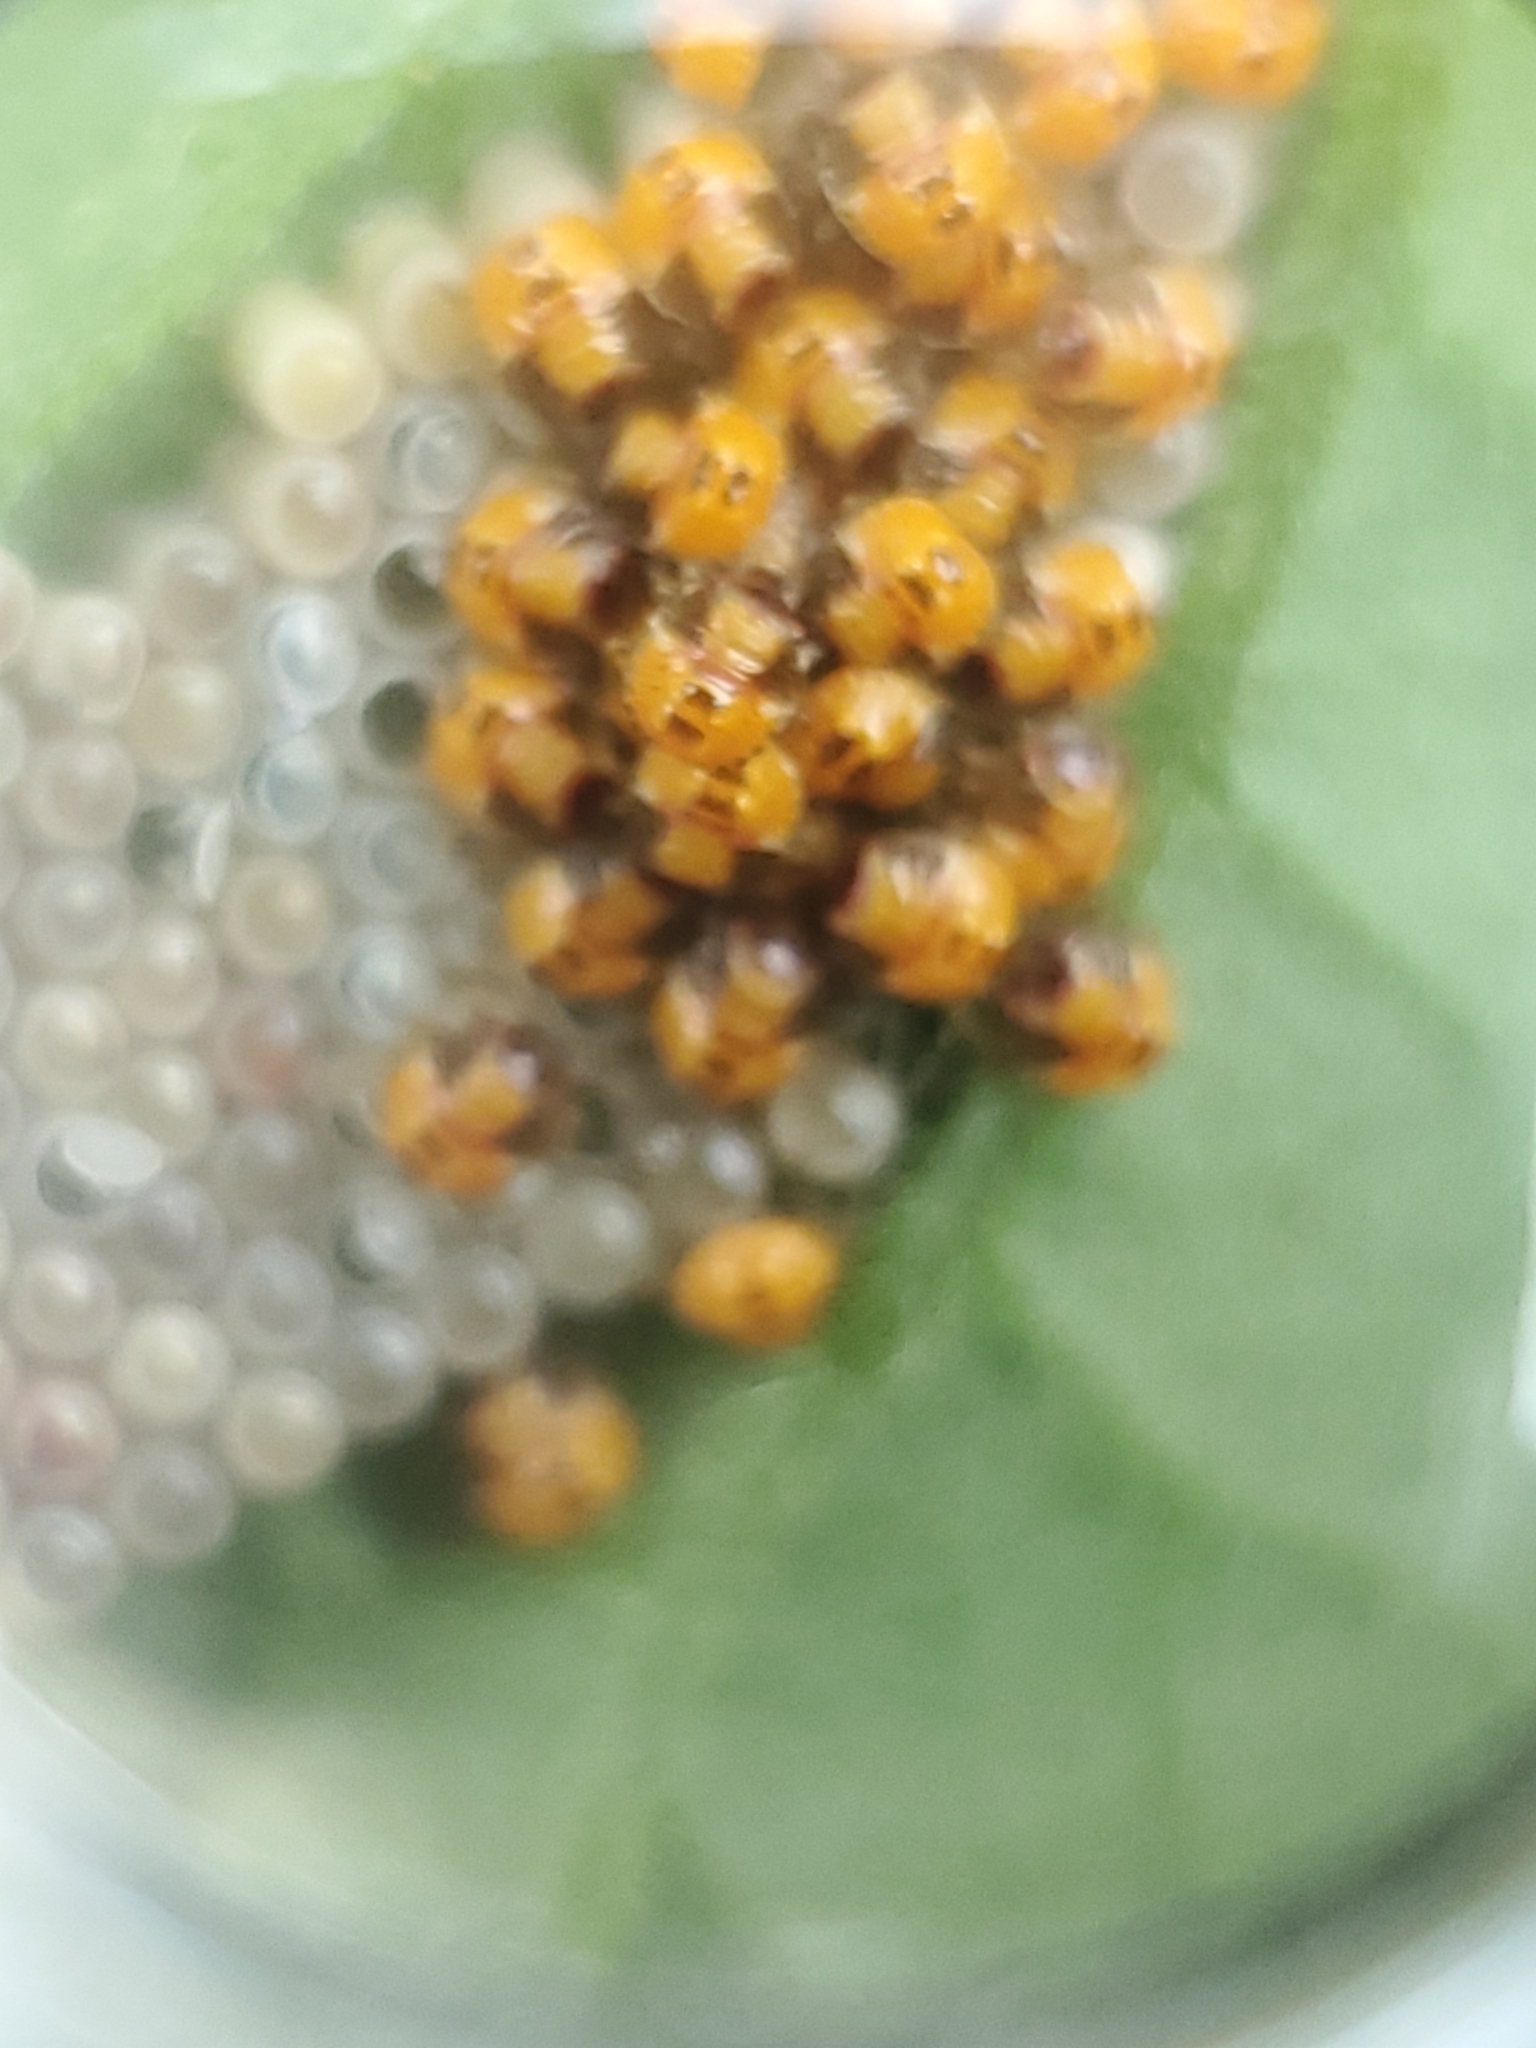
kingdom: Animalia
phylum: Arthropoda
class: Insecta
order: Hemiptera
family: Pentatomidae
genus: Nezara
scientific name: Nezara viridula
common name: Southern green stink bug
